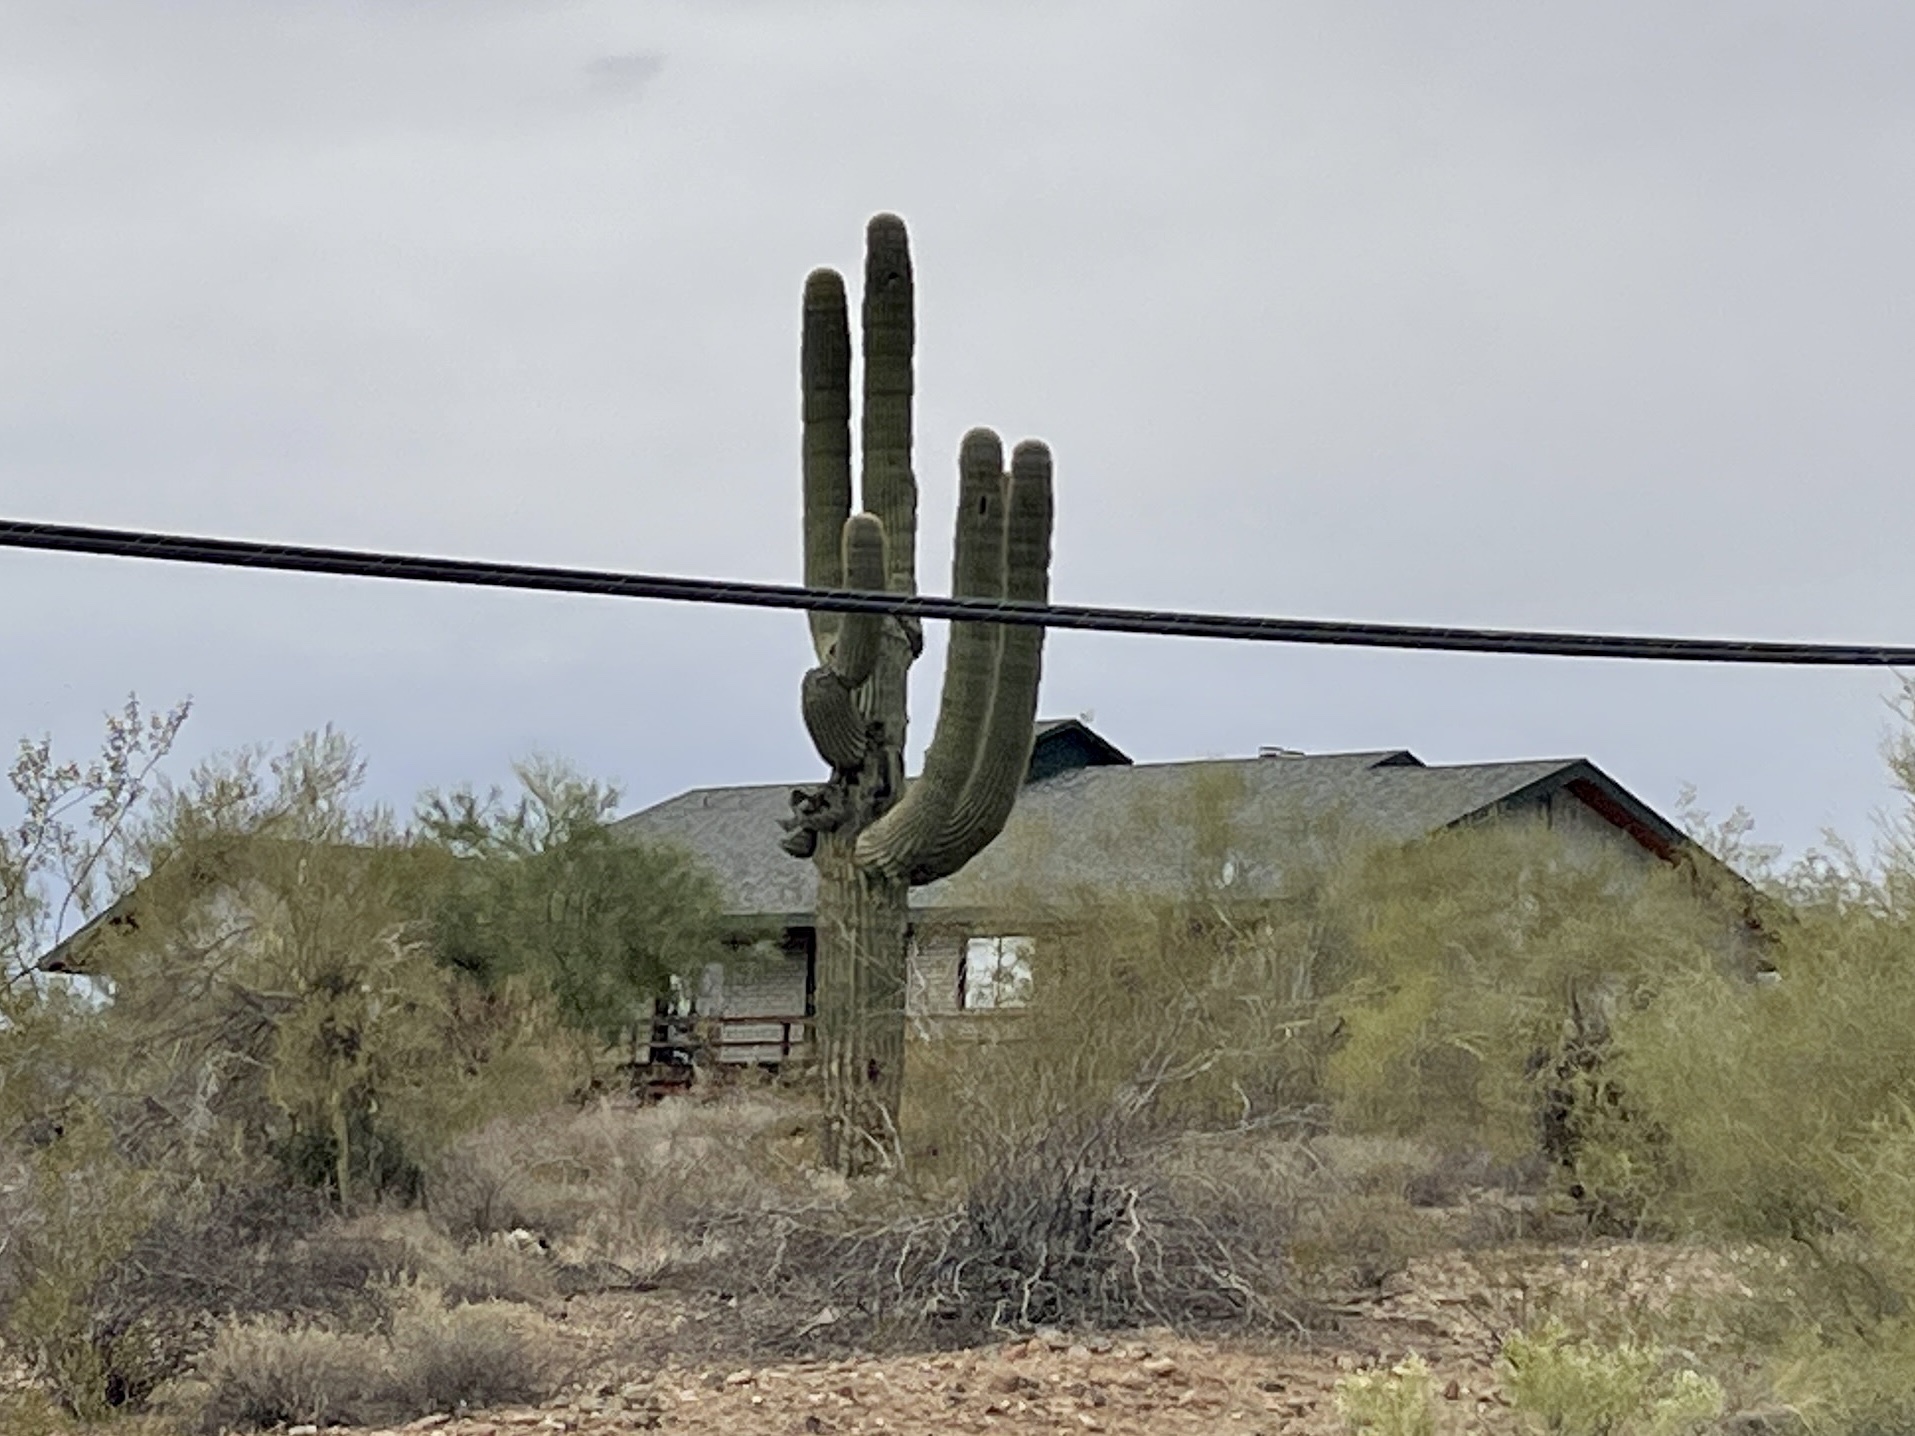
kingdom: Plantae
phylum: Tracheophyta
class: Magnoliopsida
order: Caryophyllales
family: Cactaceae
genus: Carnegiea
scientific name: Carnegiea gigantea
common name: Saguaro
